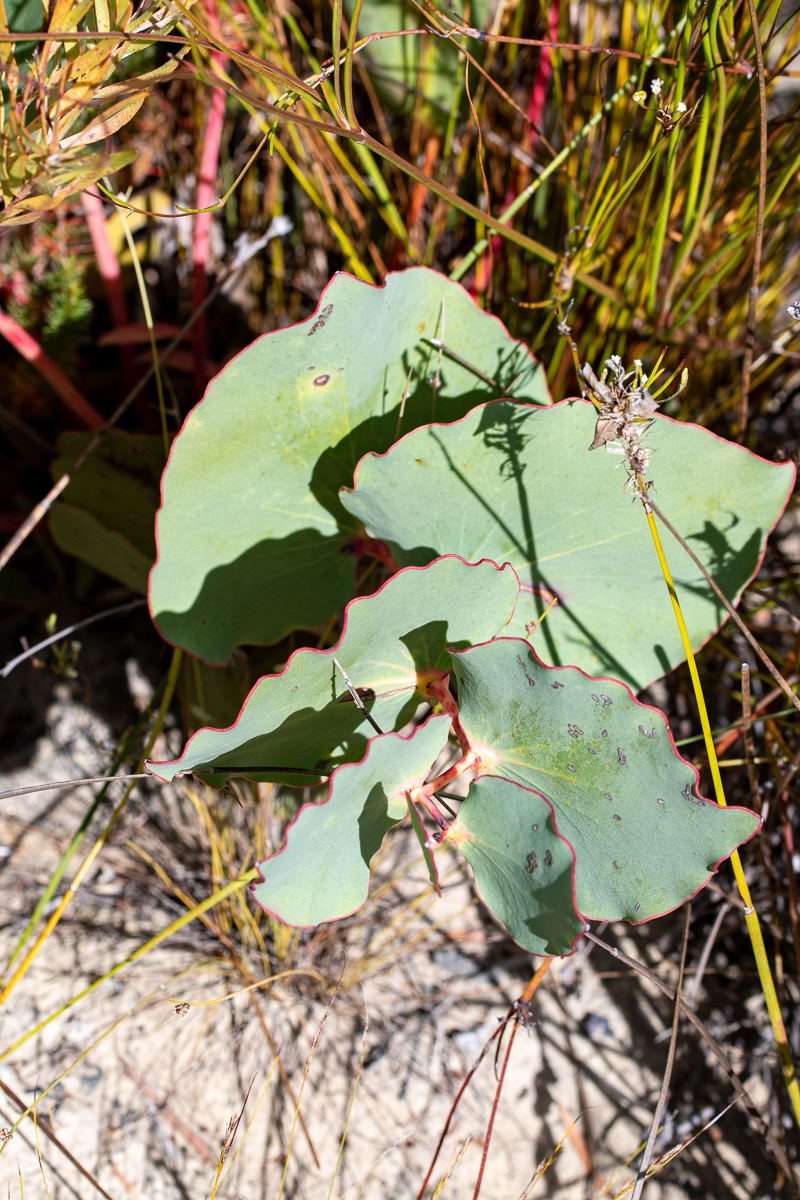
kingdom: Plantae
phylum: Tracheophyta
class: Magnoliopsida
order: Proteales
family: Proteaceae
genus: Protea
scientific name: Protea cordata
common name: Heart-leaf sugarbush
